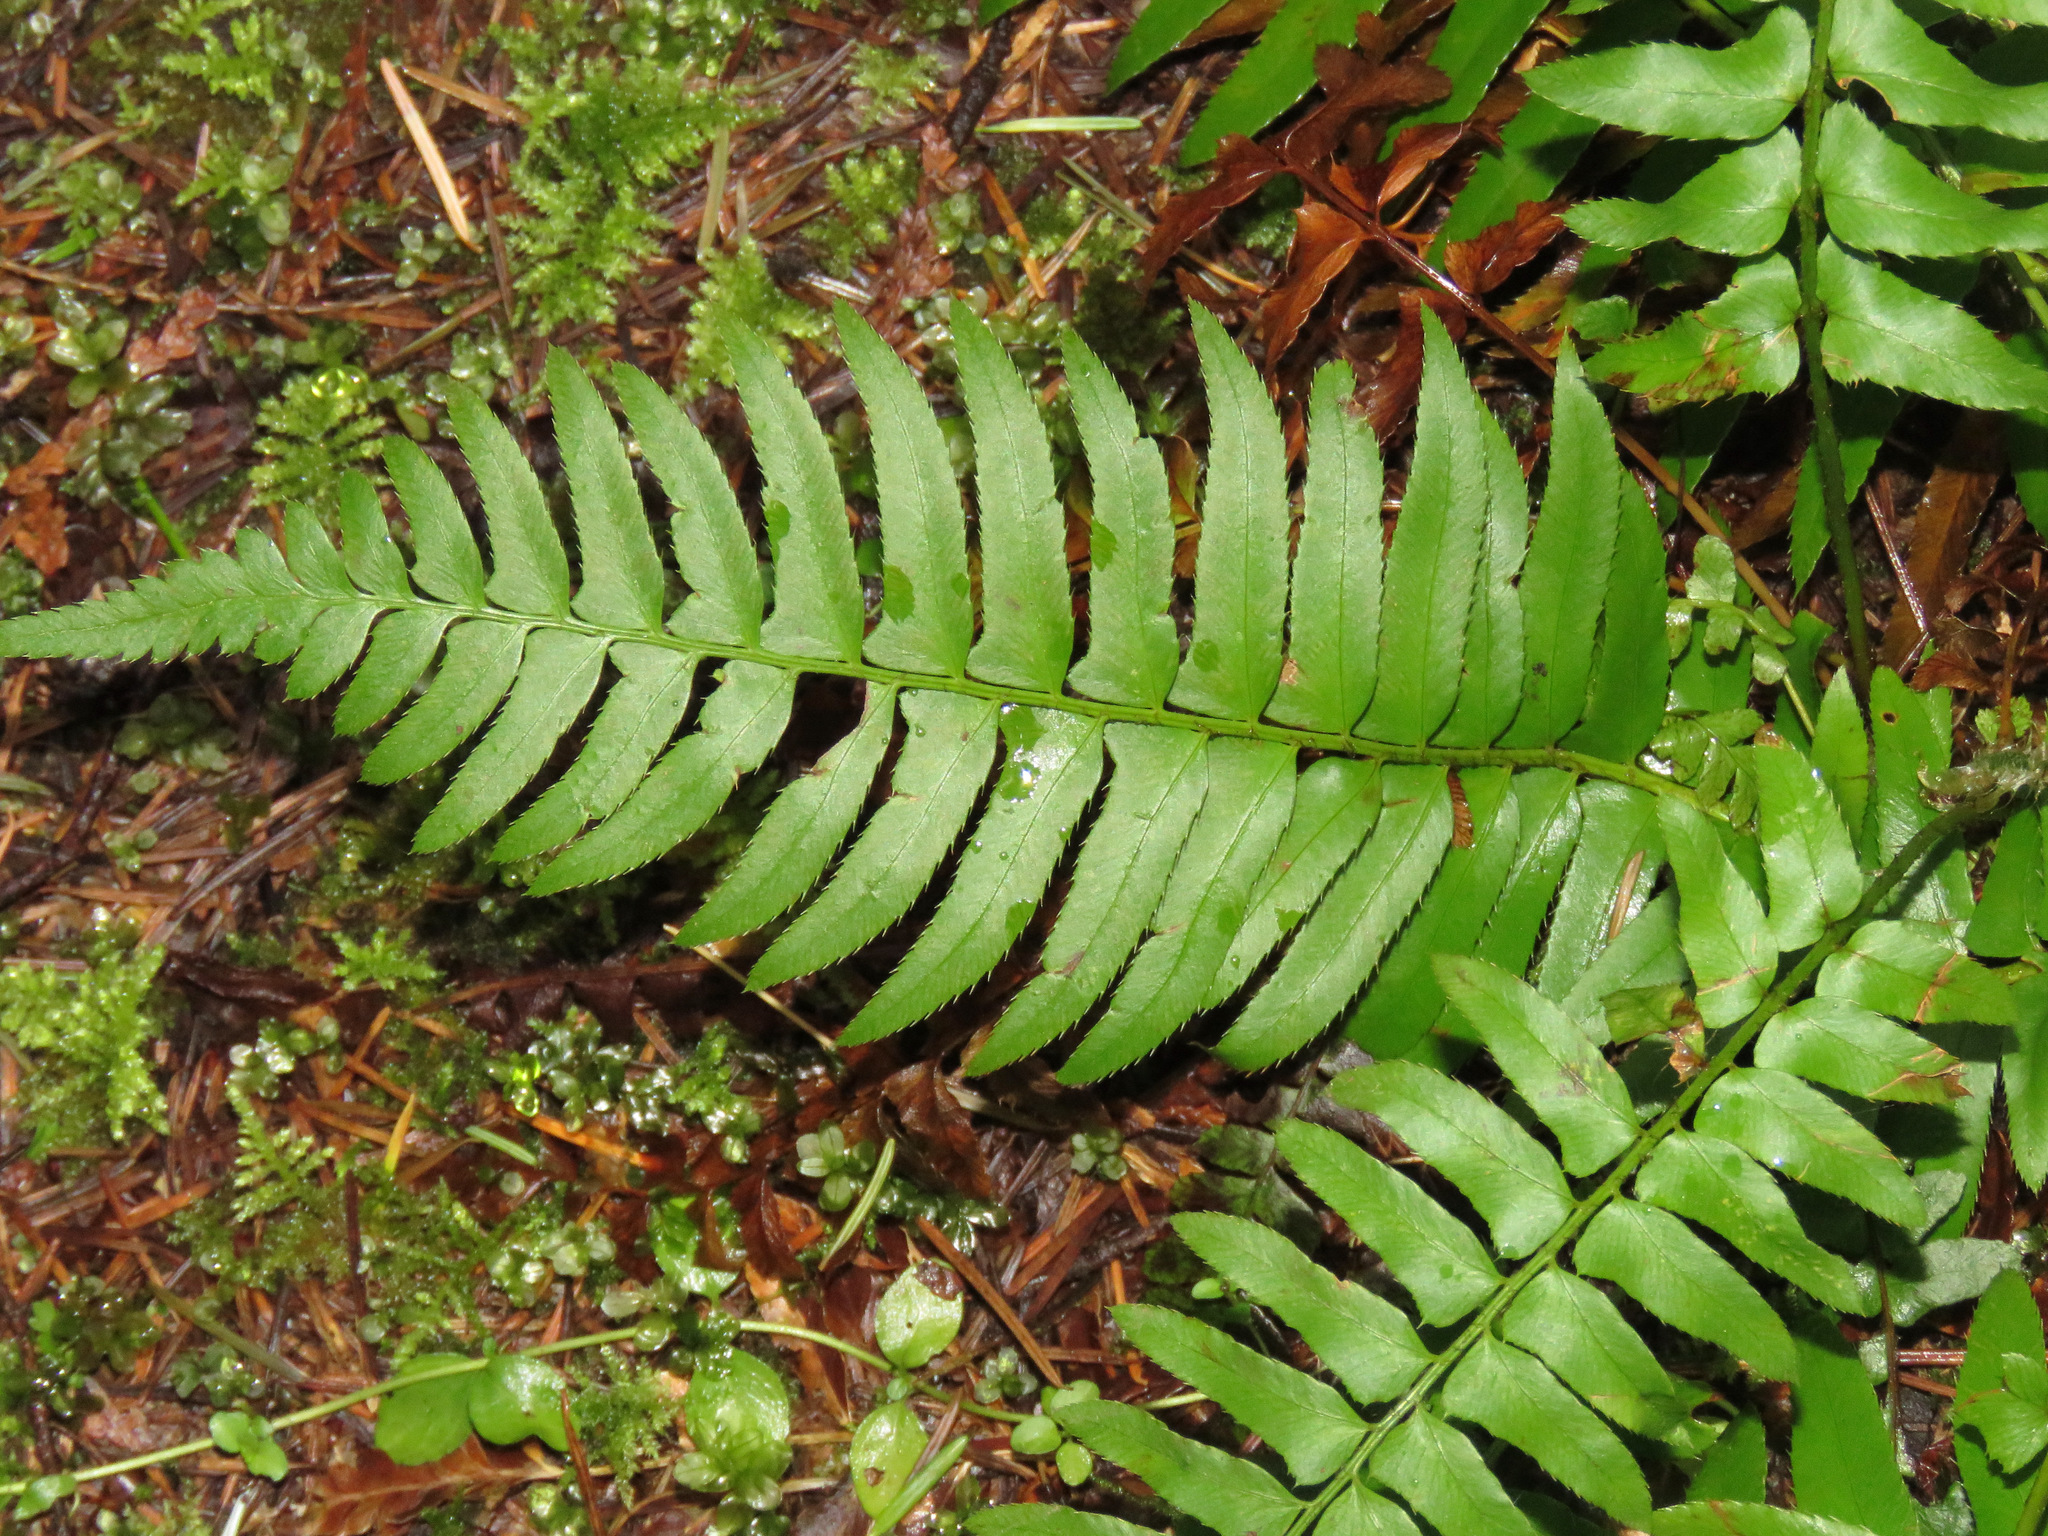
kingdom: Plantae
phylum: Tracheophyta
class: Polypodiopsida
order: Polypodiales
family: Dryopteridaceae
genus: Polystichum
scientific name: Polystichum munitum
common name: Western sword-fern
